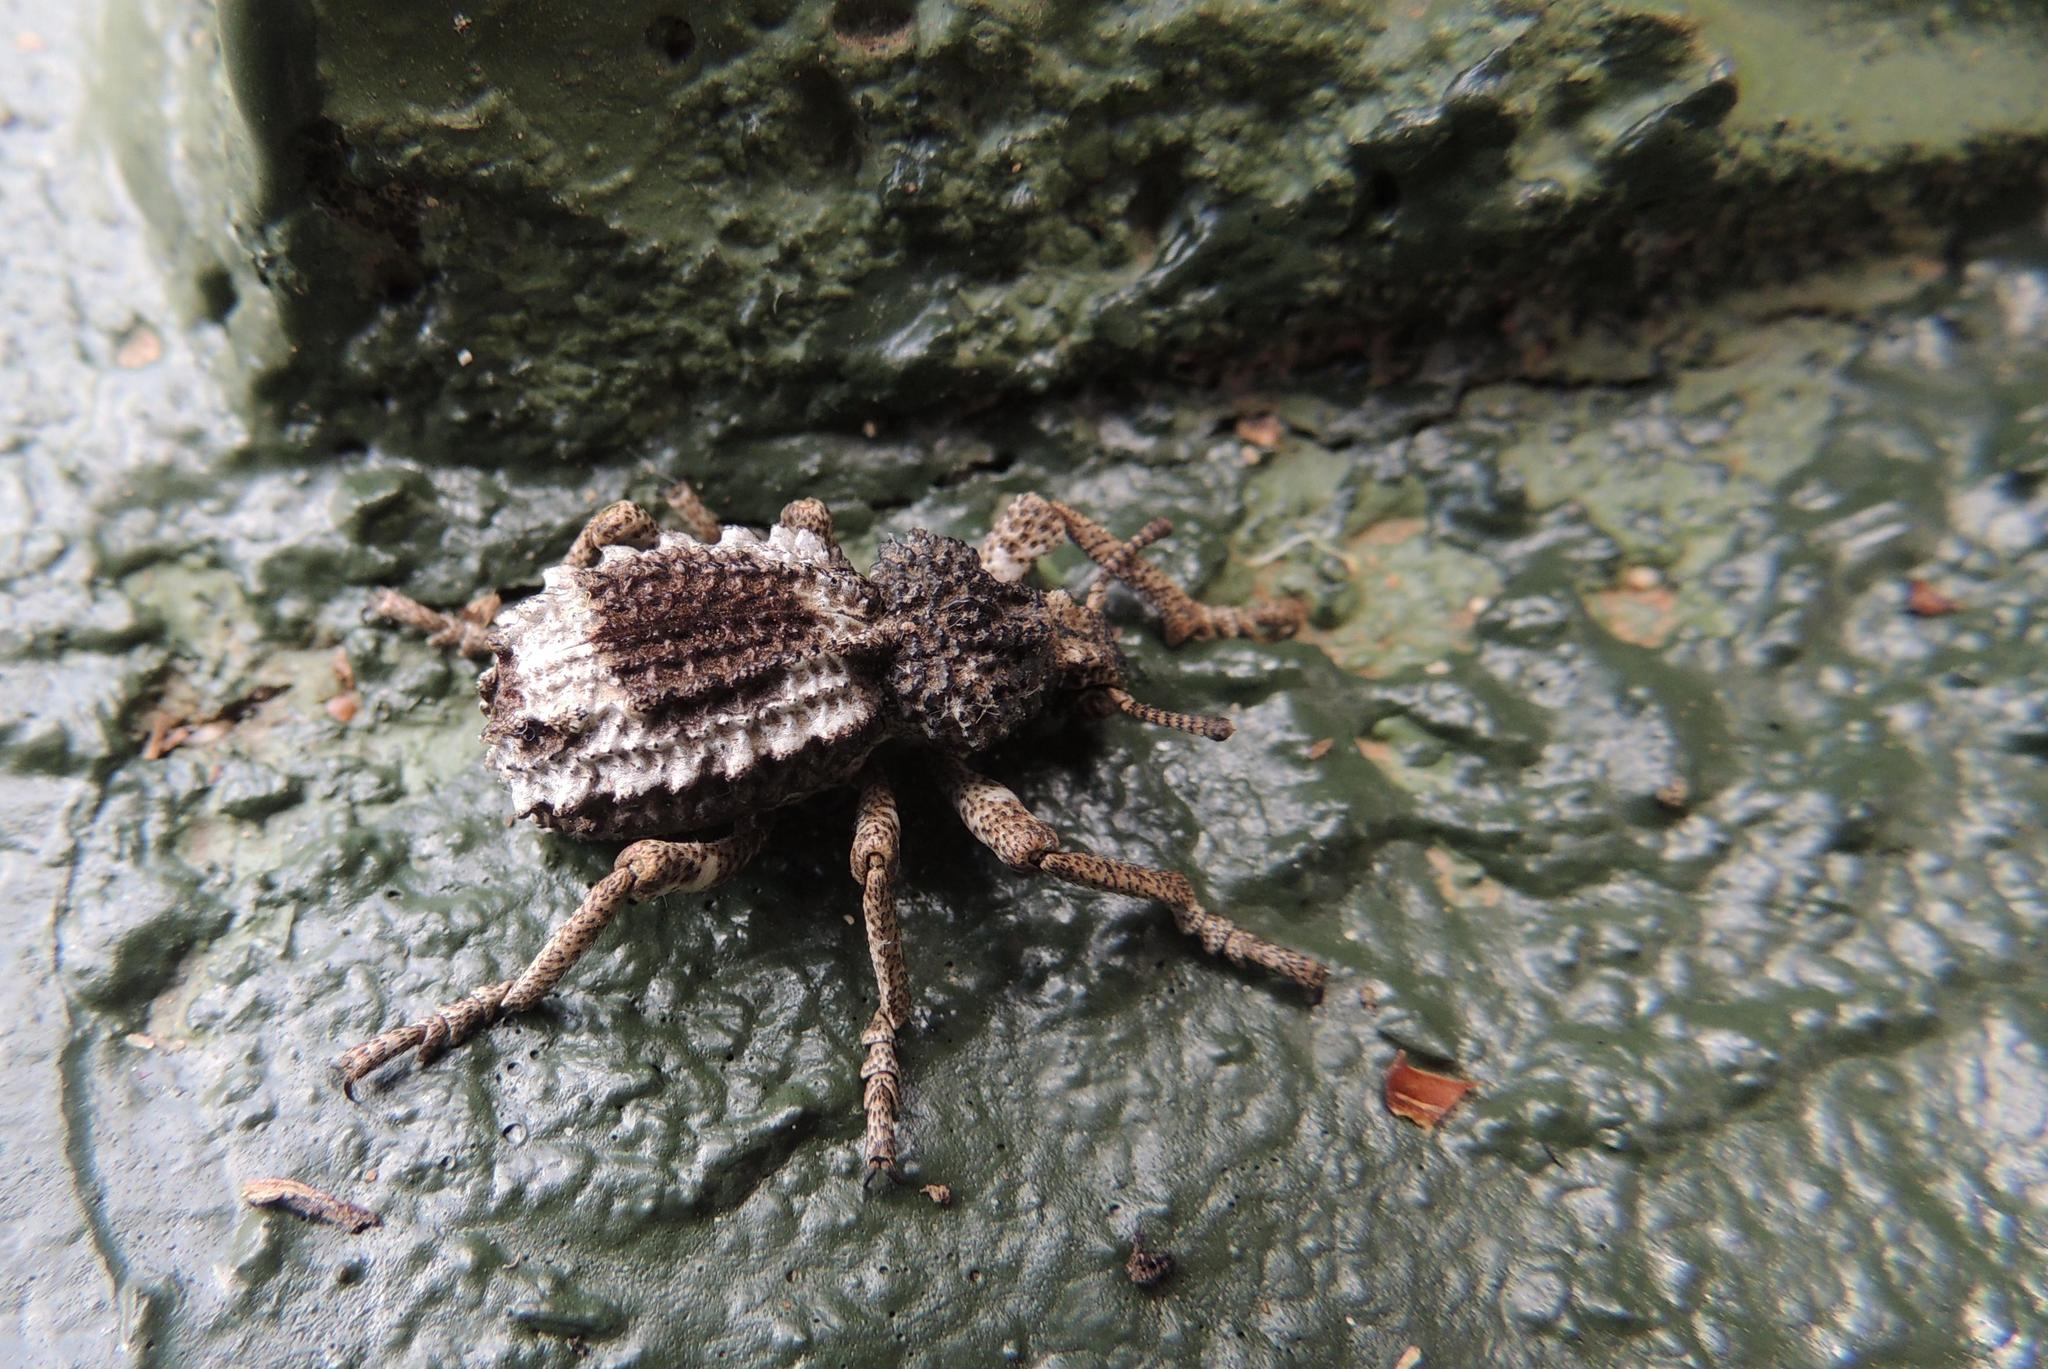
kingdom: Animalia
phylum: Arthropoda
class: Insecta
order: Coleoptera
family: Brachyceridae
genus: Brachycerus
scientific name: Brachycerus tauriculus
